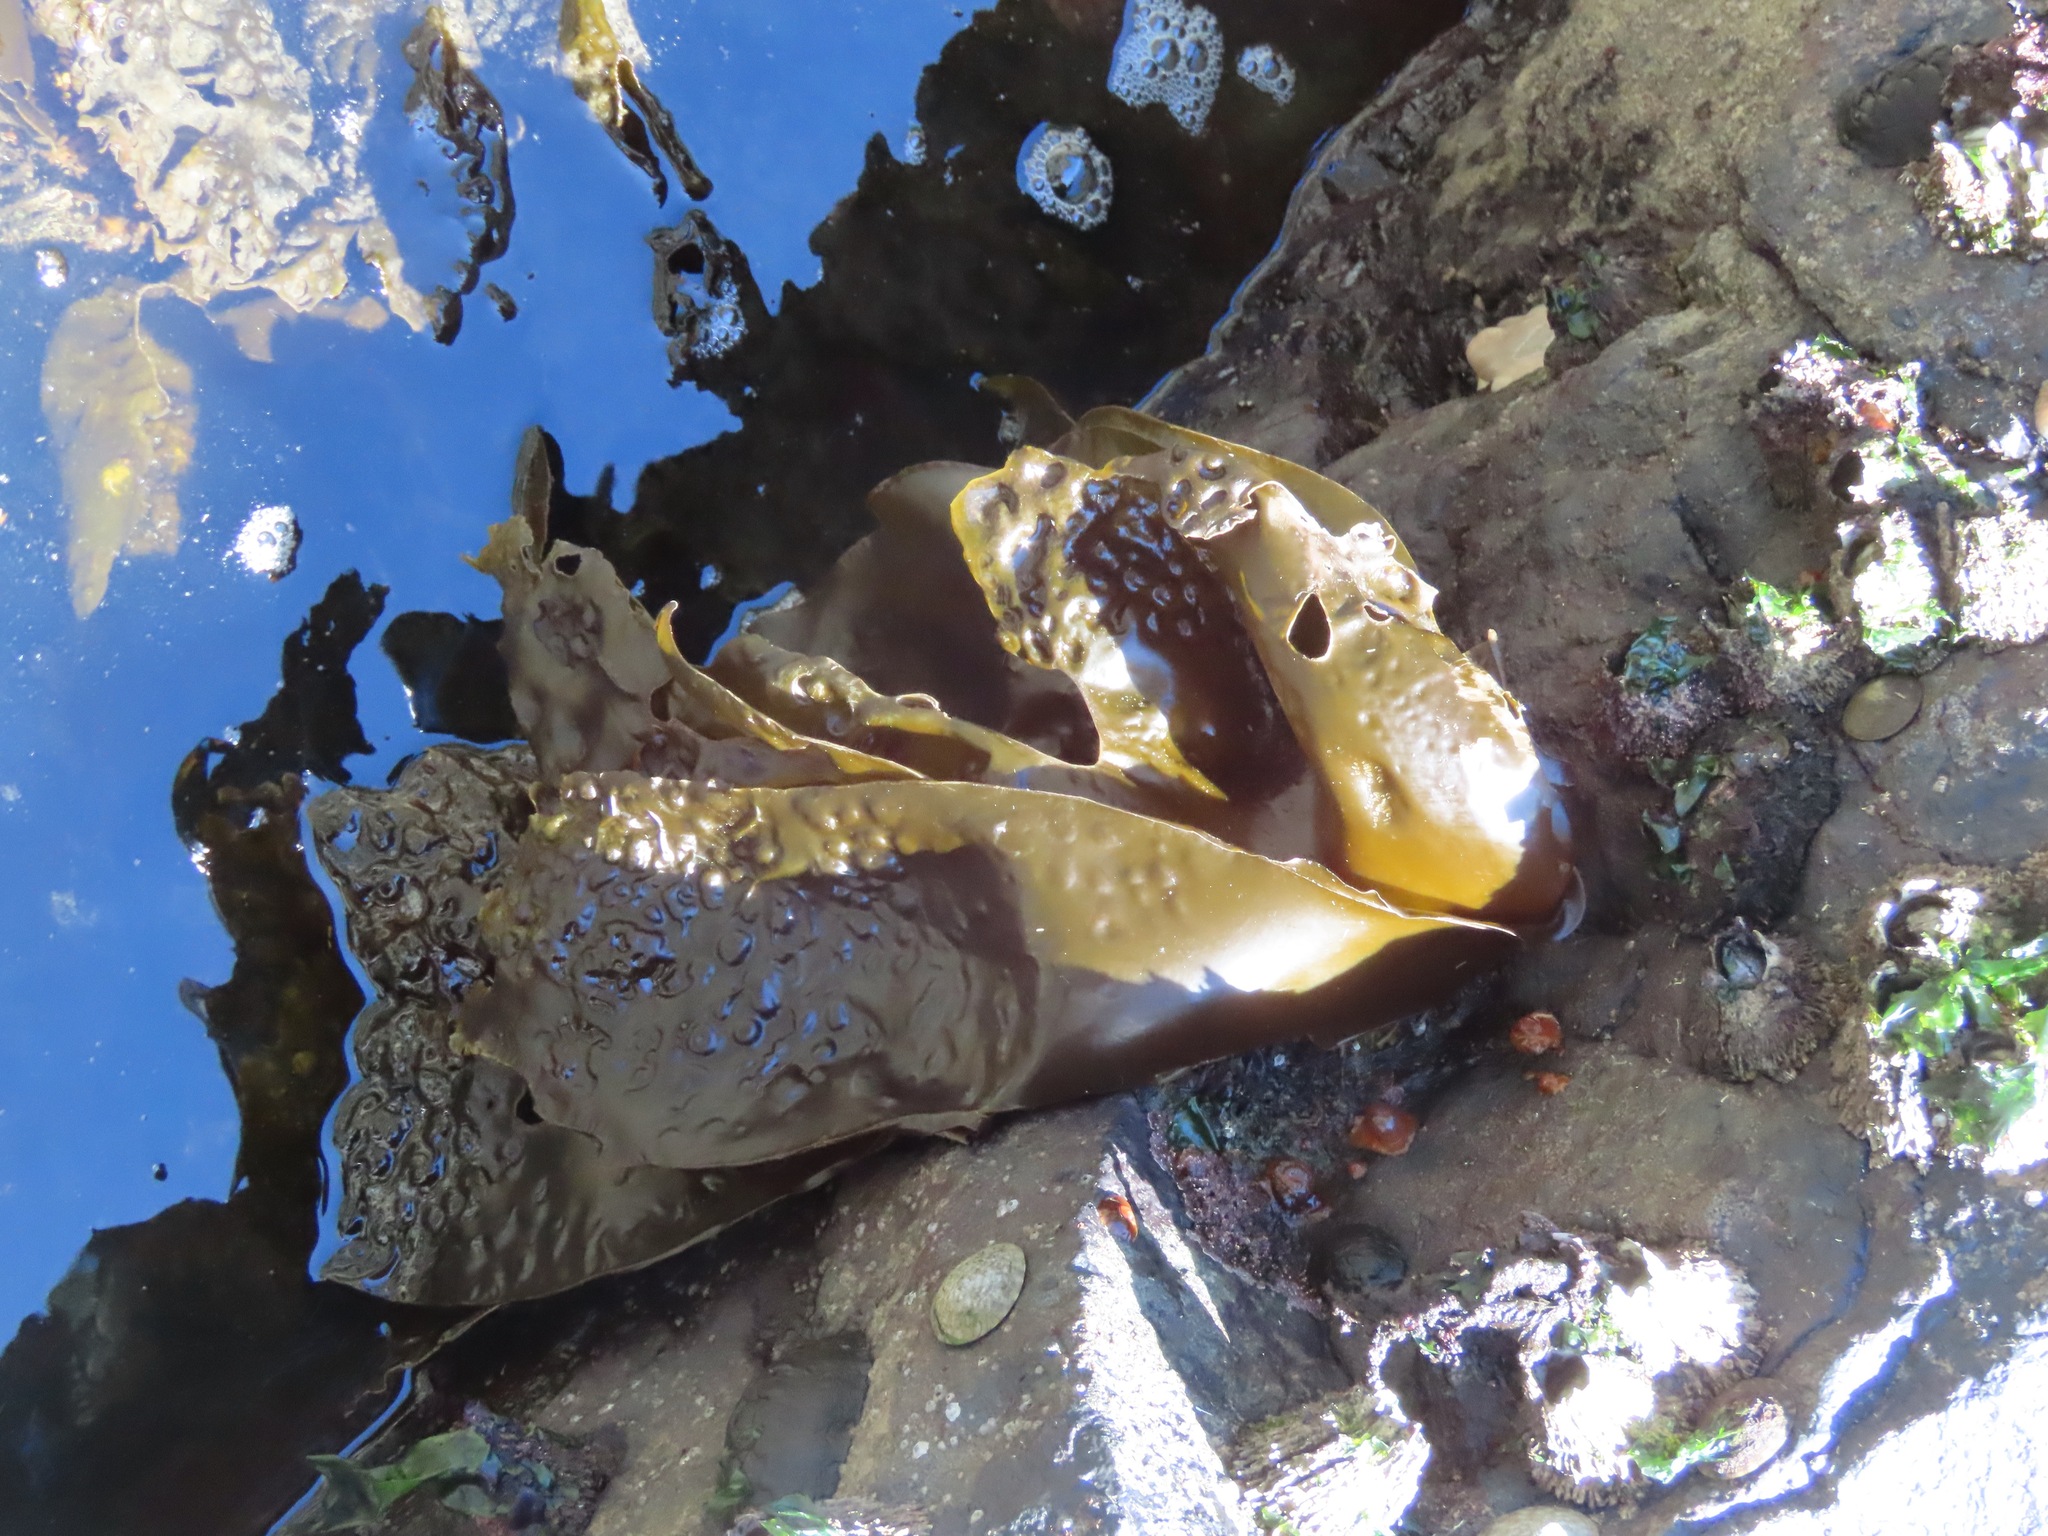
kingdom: Chromista
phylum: Ochrophyta
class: Phaeophyceae
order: Laminariales
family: Laminariaceae
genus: Hedophyllum
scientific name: Hedophyllum sessile
